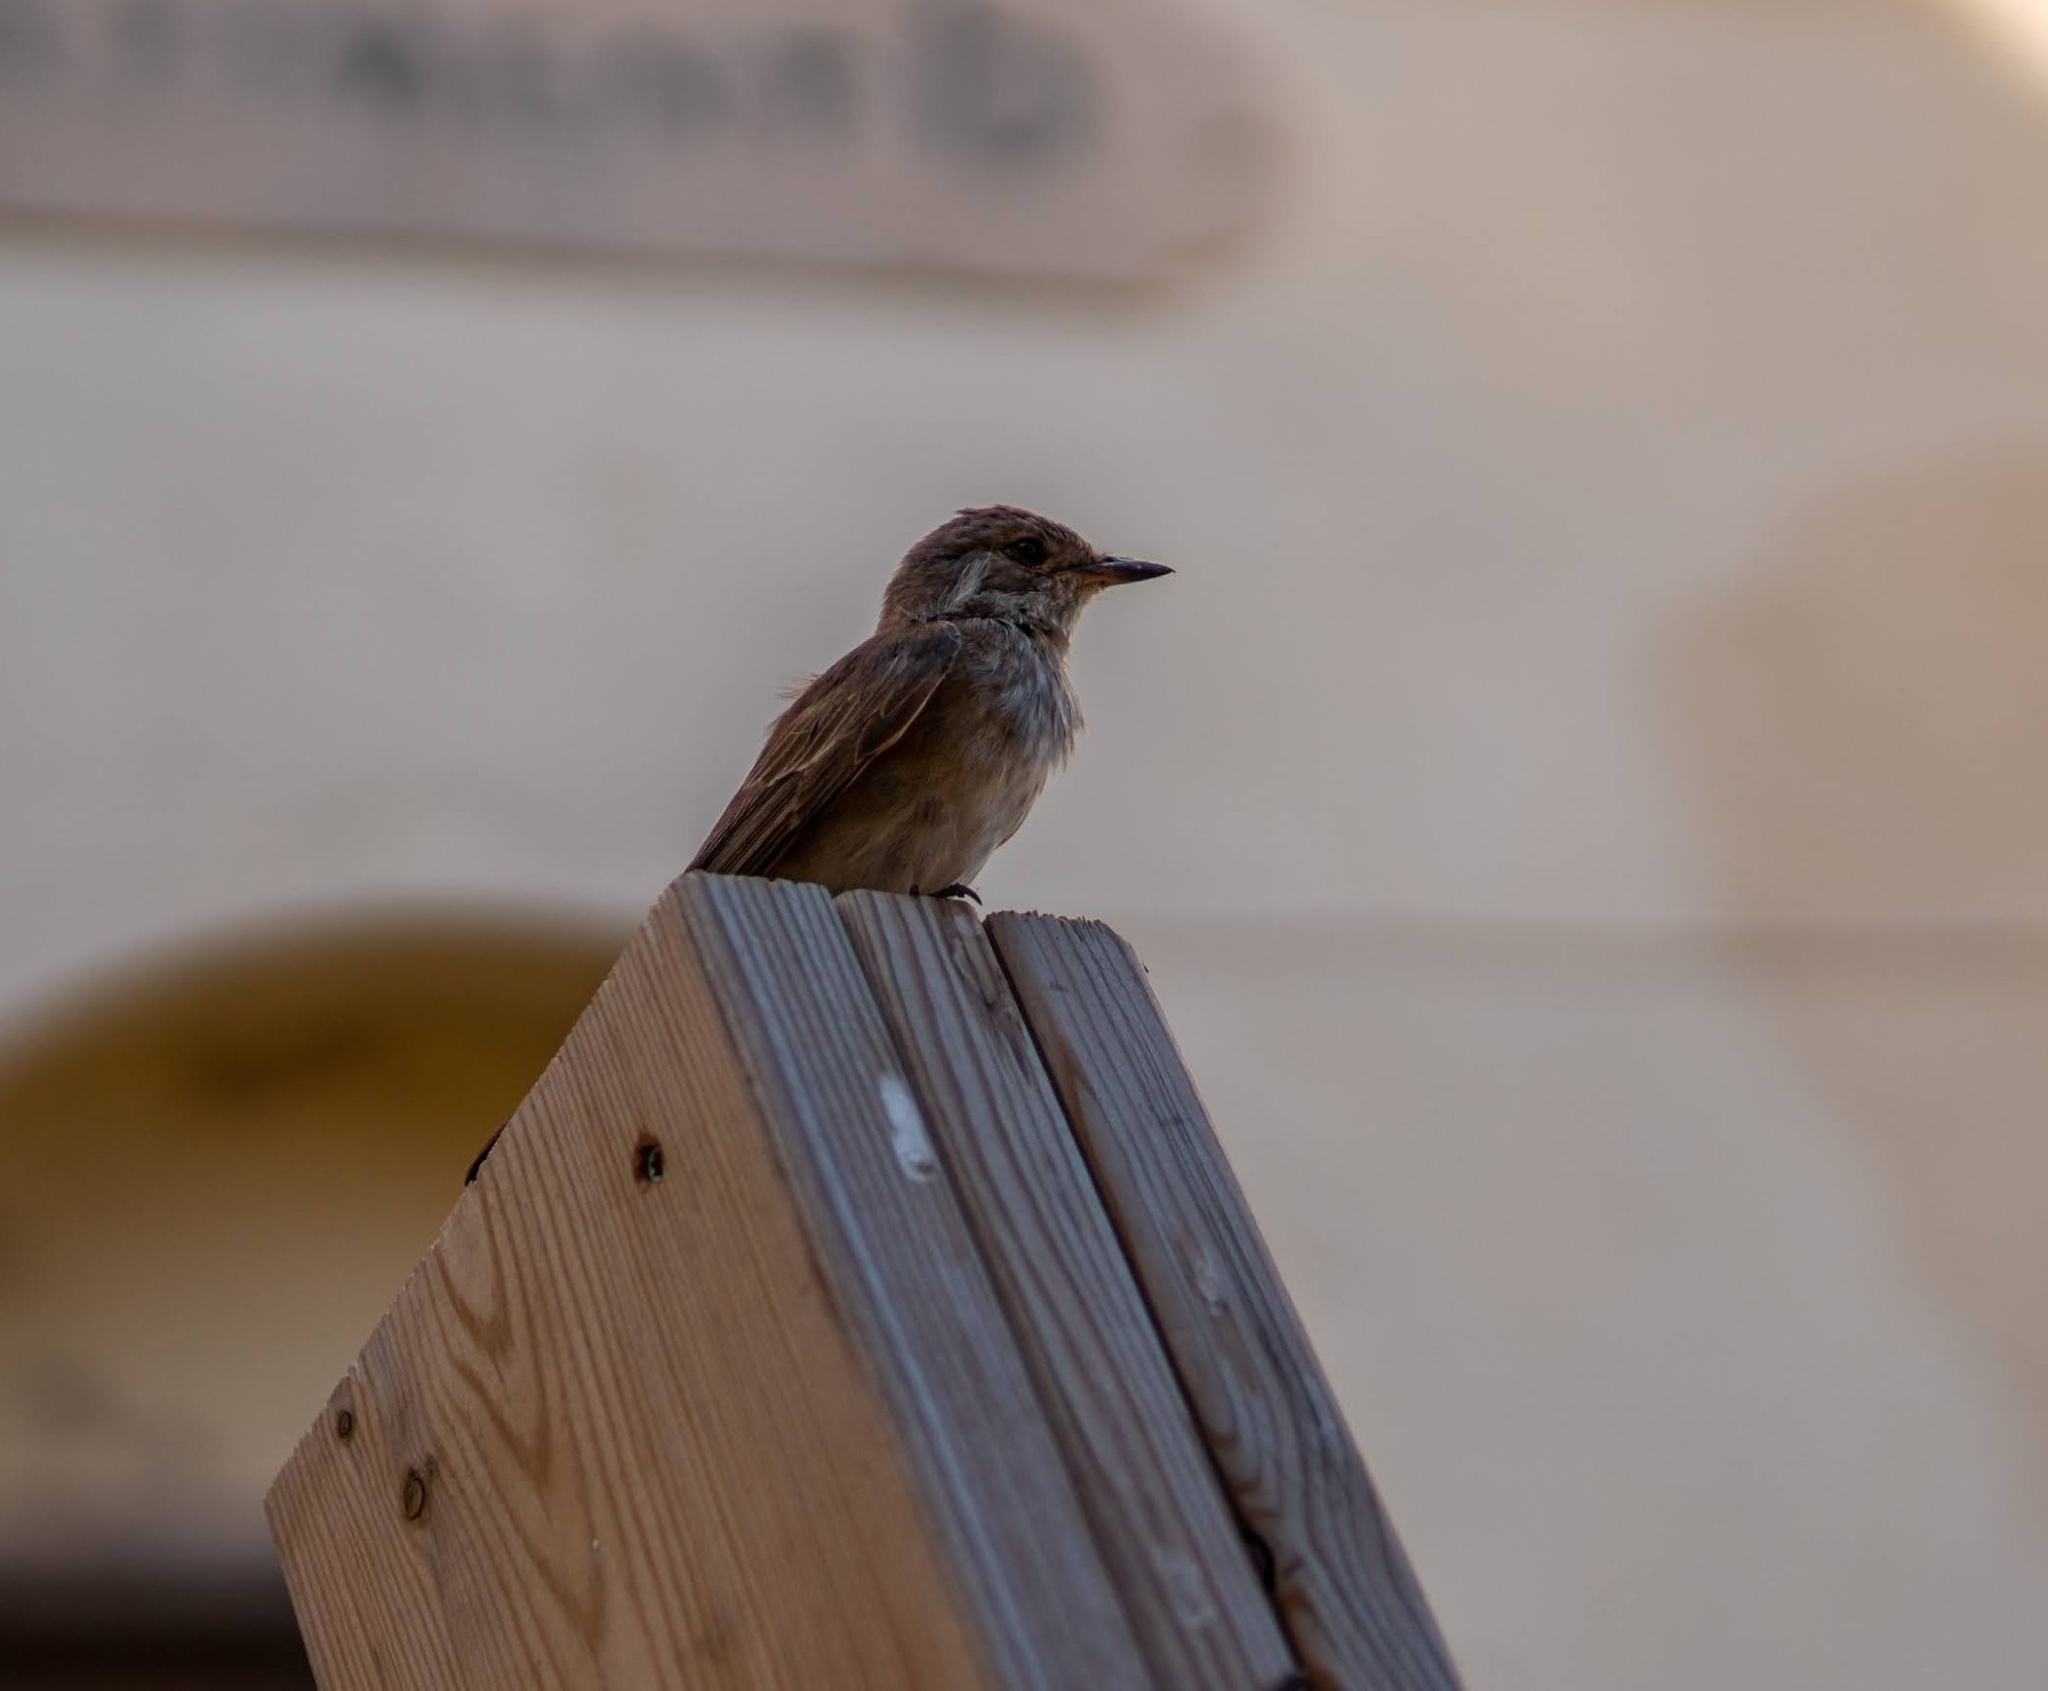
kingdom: Animalia
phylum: Chordata
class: Aves
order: Passeriformes
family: Muscicapidae
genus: Muscicapa
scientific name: Muscicapa striata
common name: Spotted flycatcher
